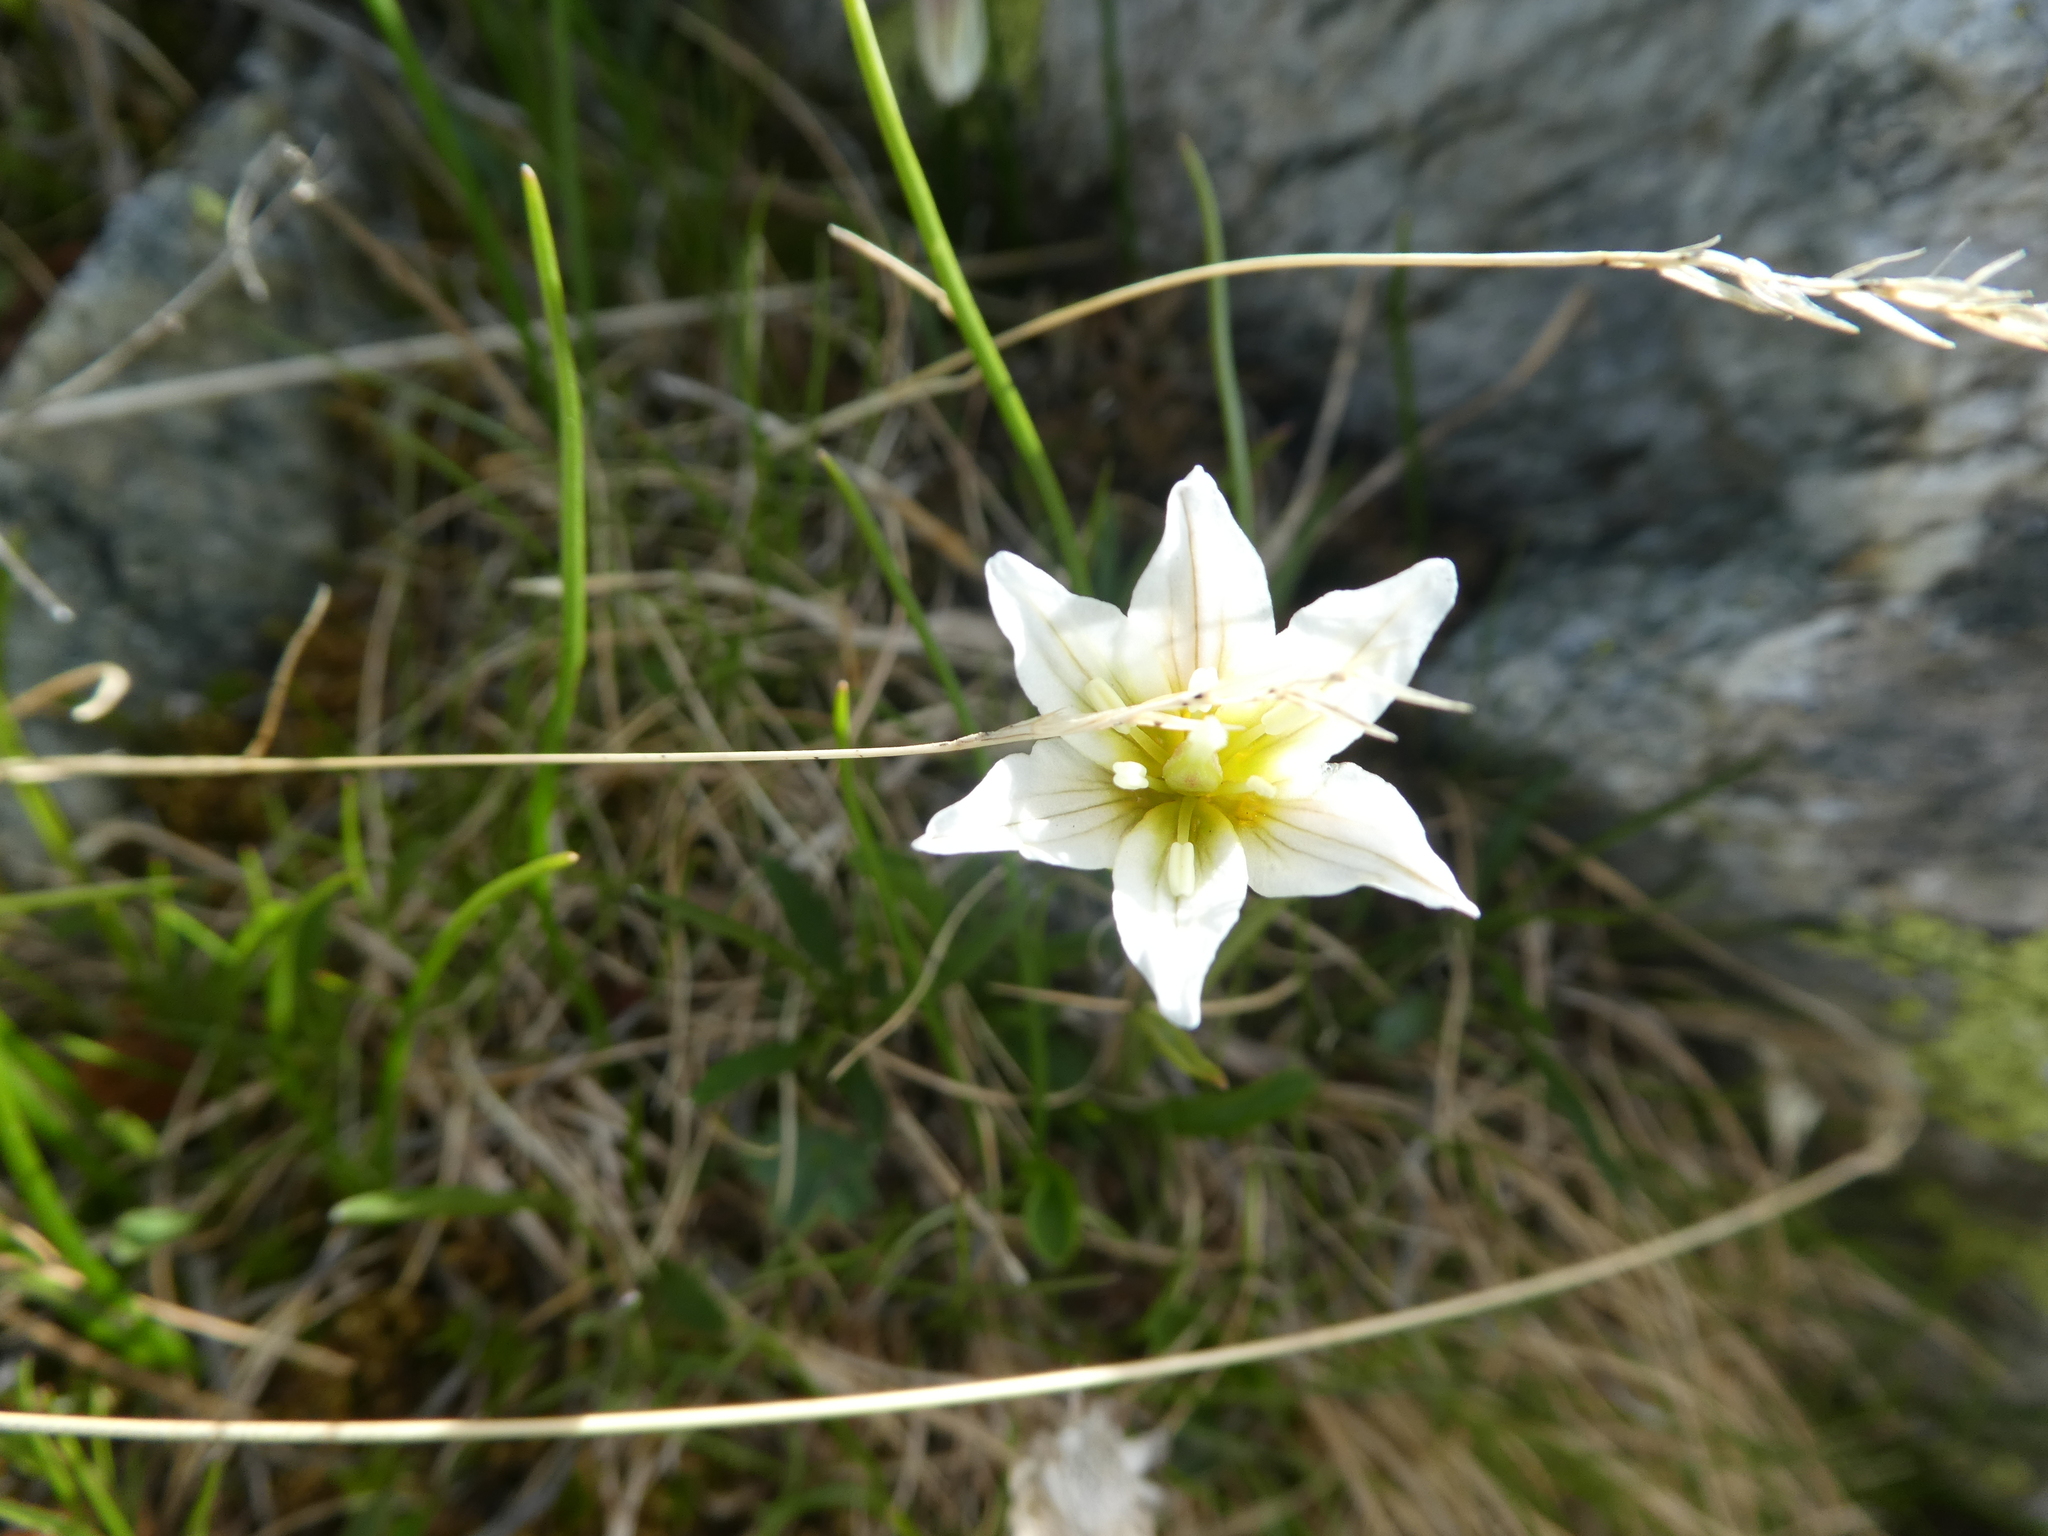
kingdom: Plantae
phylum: Tracheophyta
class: Liliopsida
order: Liliales
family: Liliaceae
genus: Gagea
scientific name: Gagea serotina
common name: Snowdon lily
